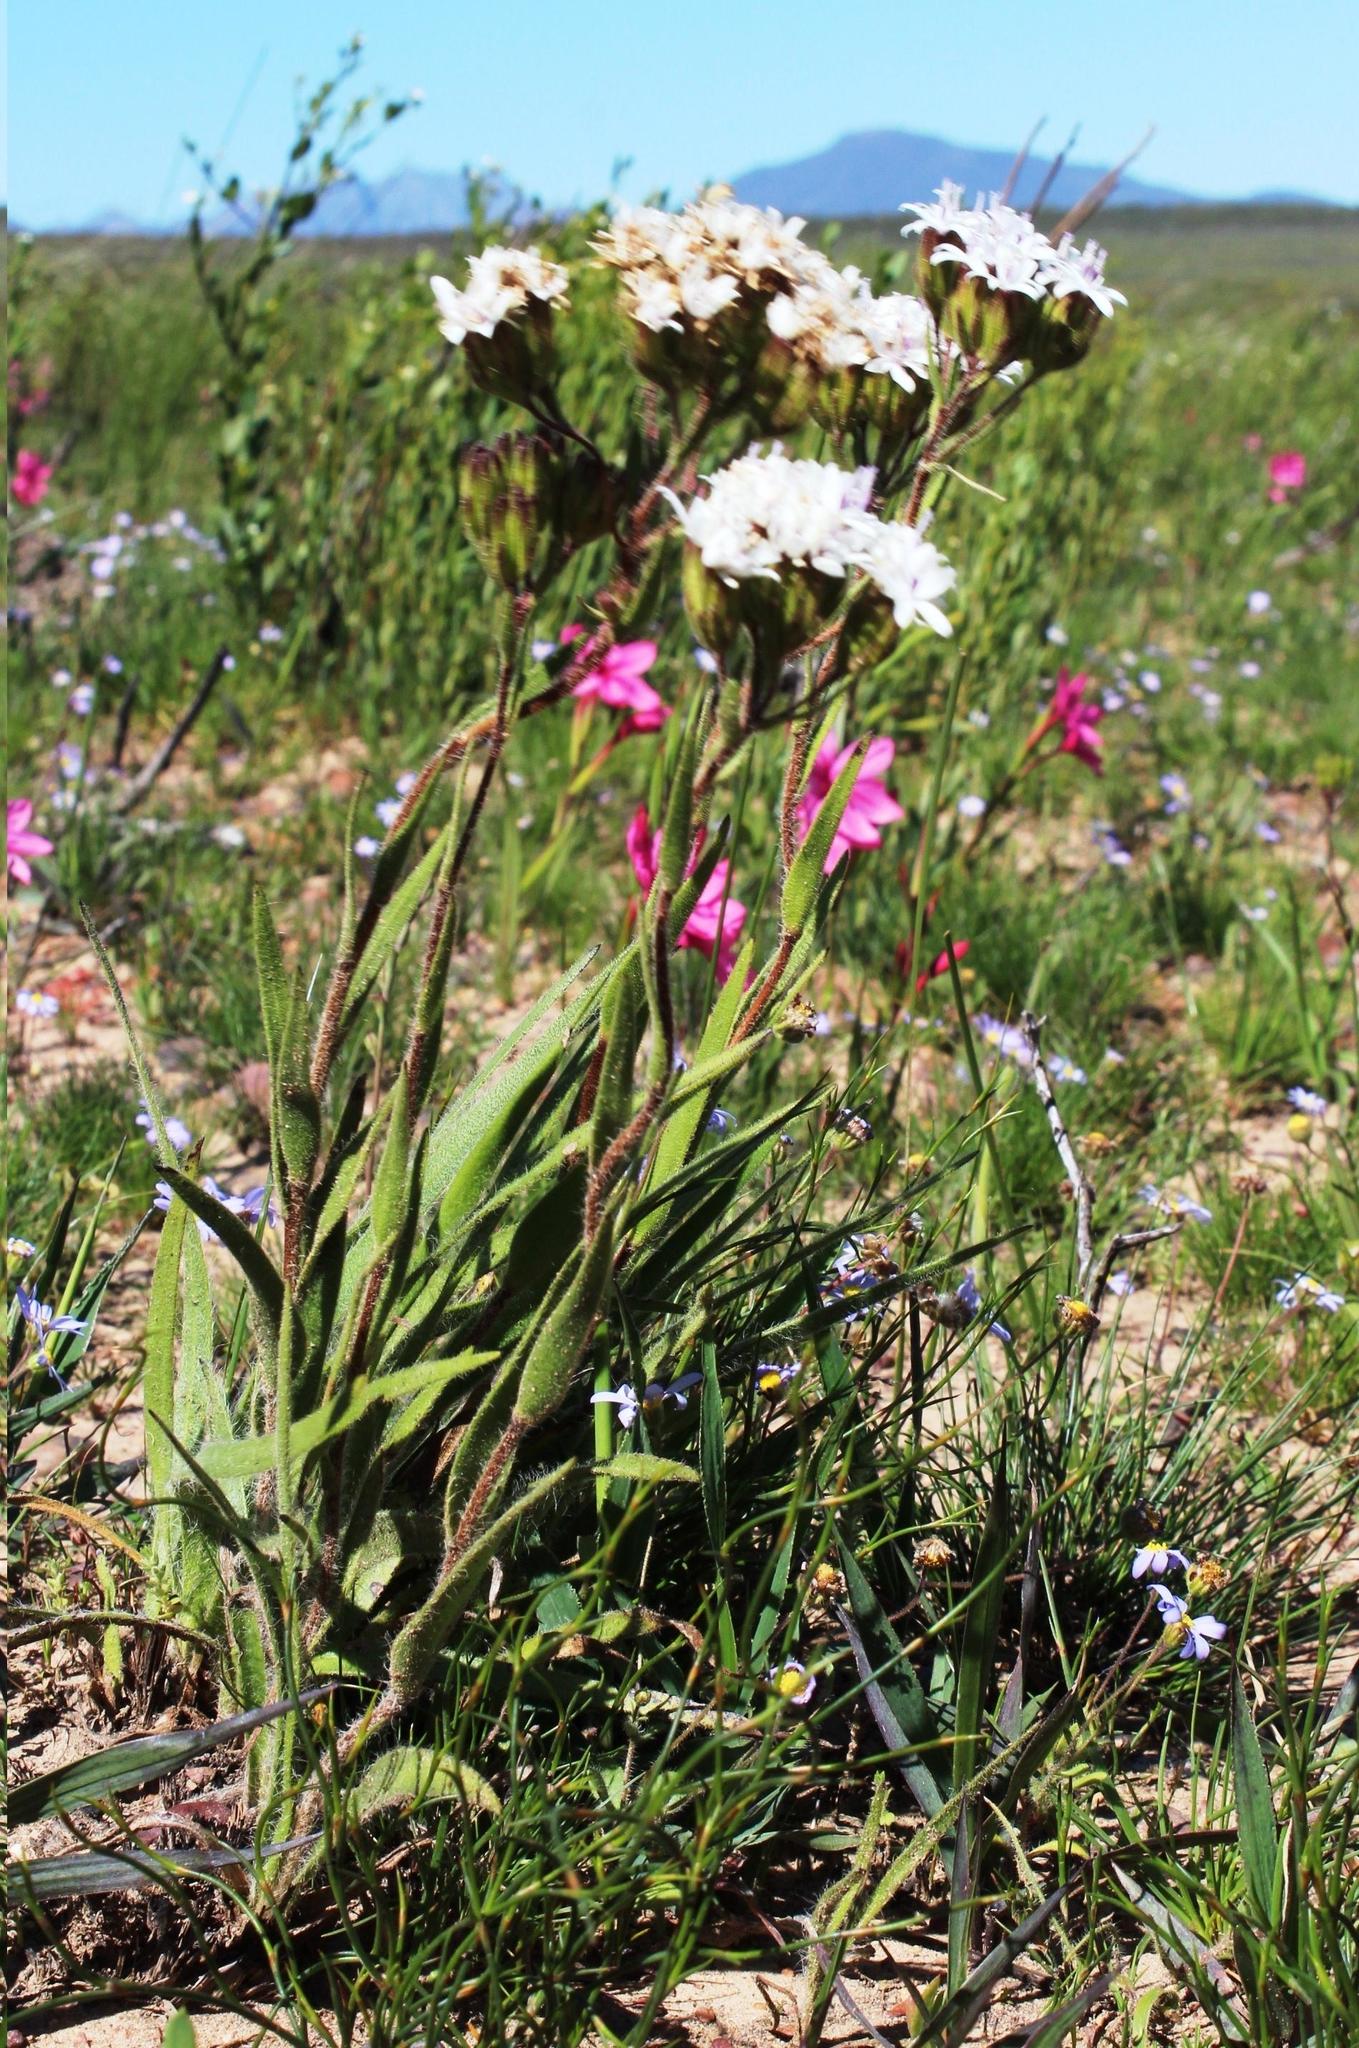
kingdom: Plantae
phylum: Tracheophyta
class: Magnoliopsida
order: Asterales
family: Asteraceae
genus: Corymbium
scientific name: Corymbium villosum
